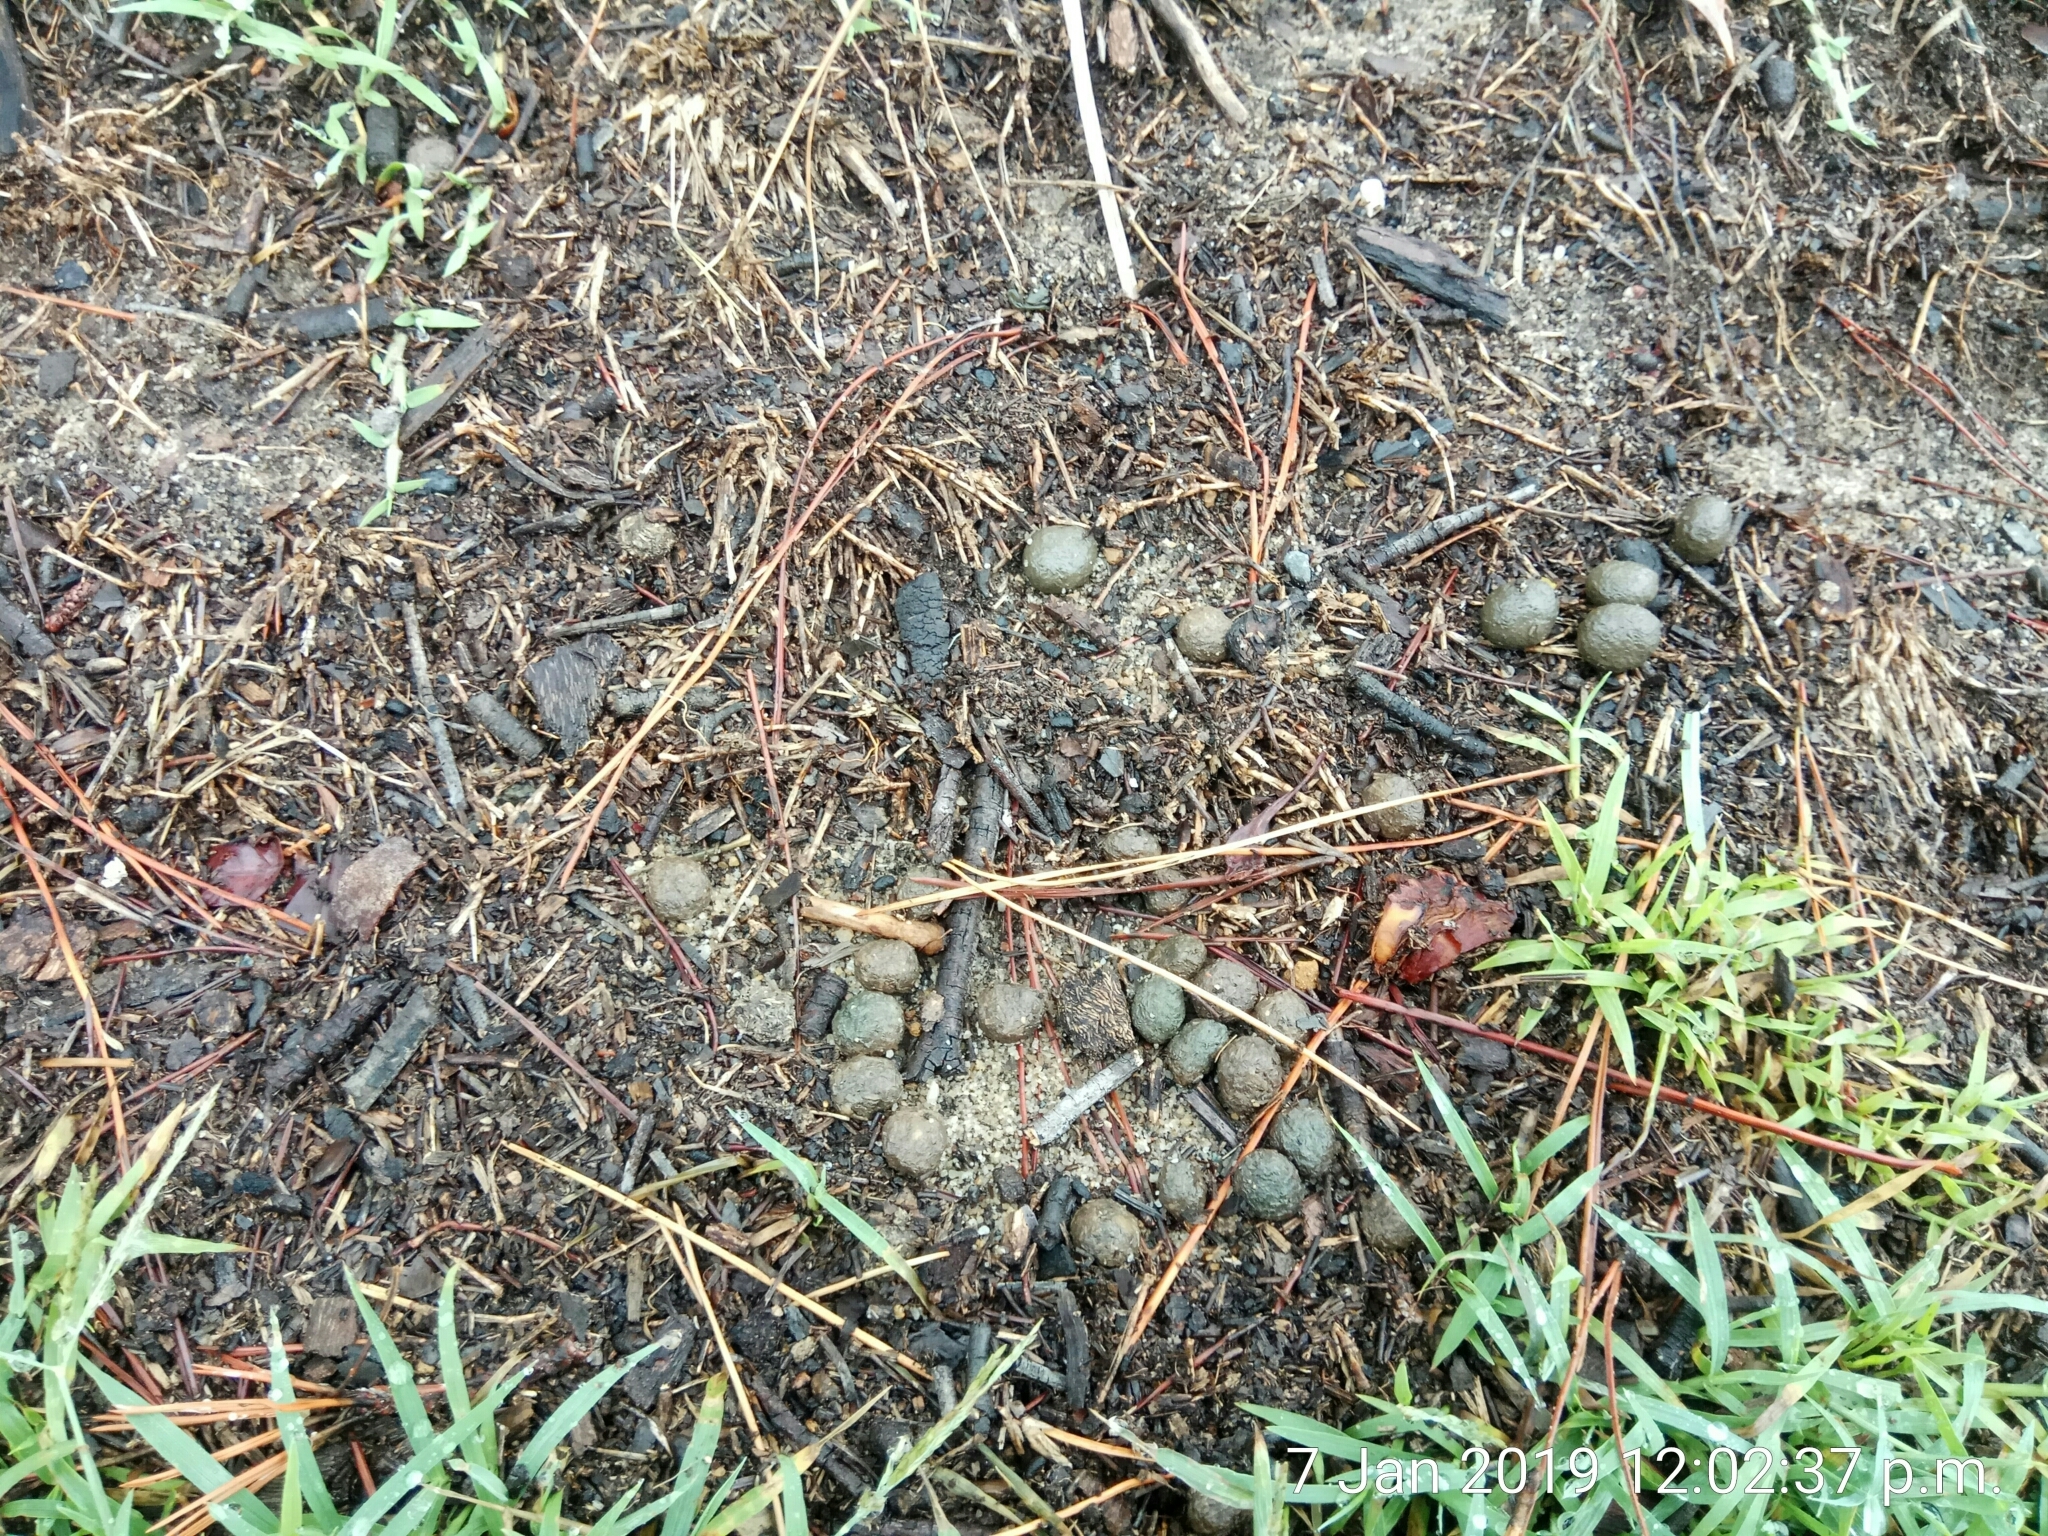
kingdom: Animalia
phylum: Chordata
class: Mammalia
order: Lagomorpha
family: Leporidae
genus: Oryctolagus
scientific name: Oryctolagus cuniculus
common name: European rabbit
